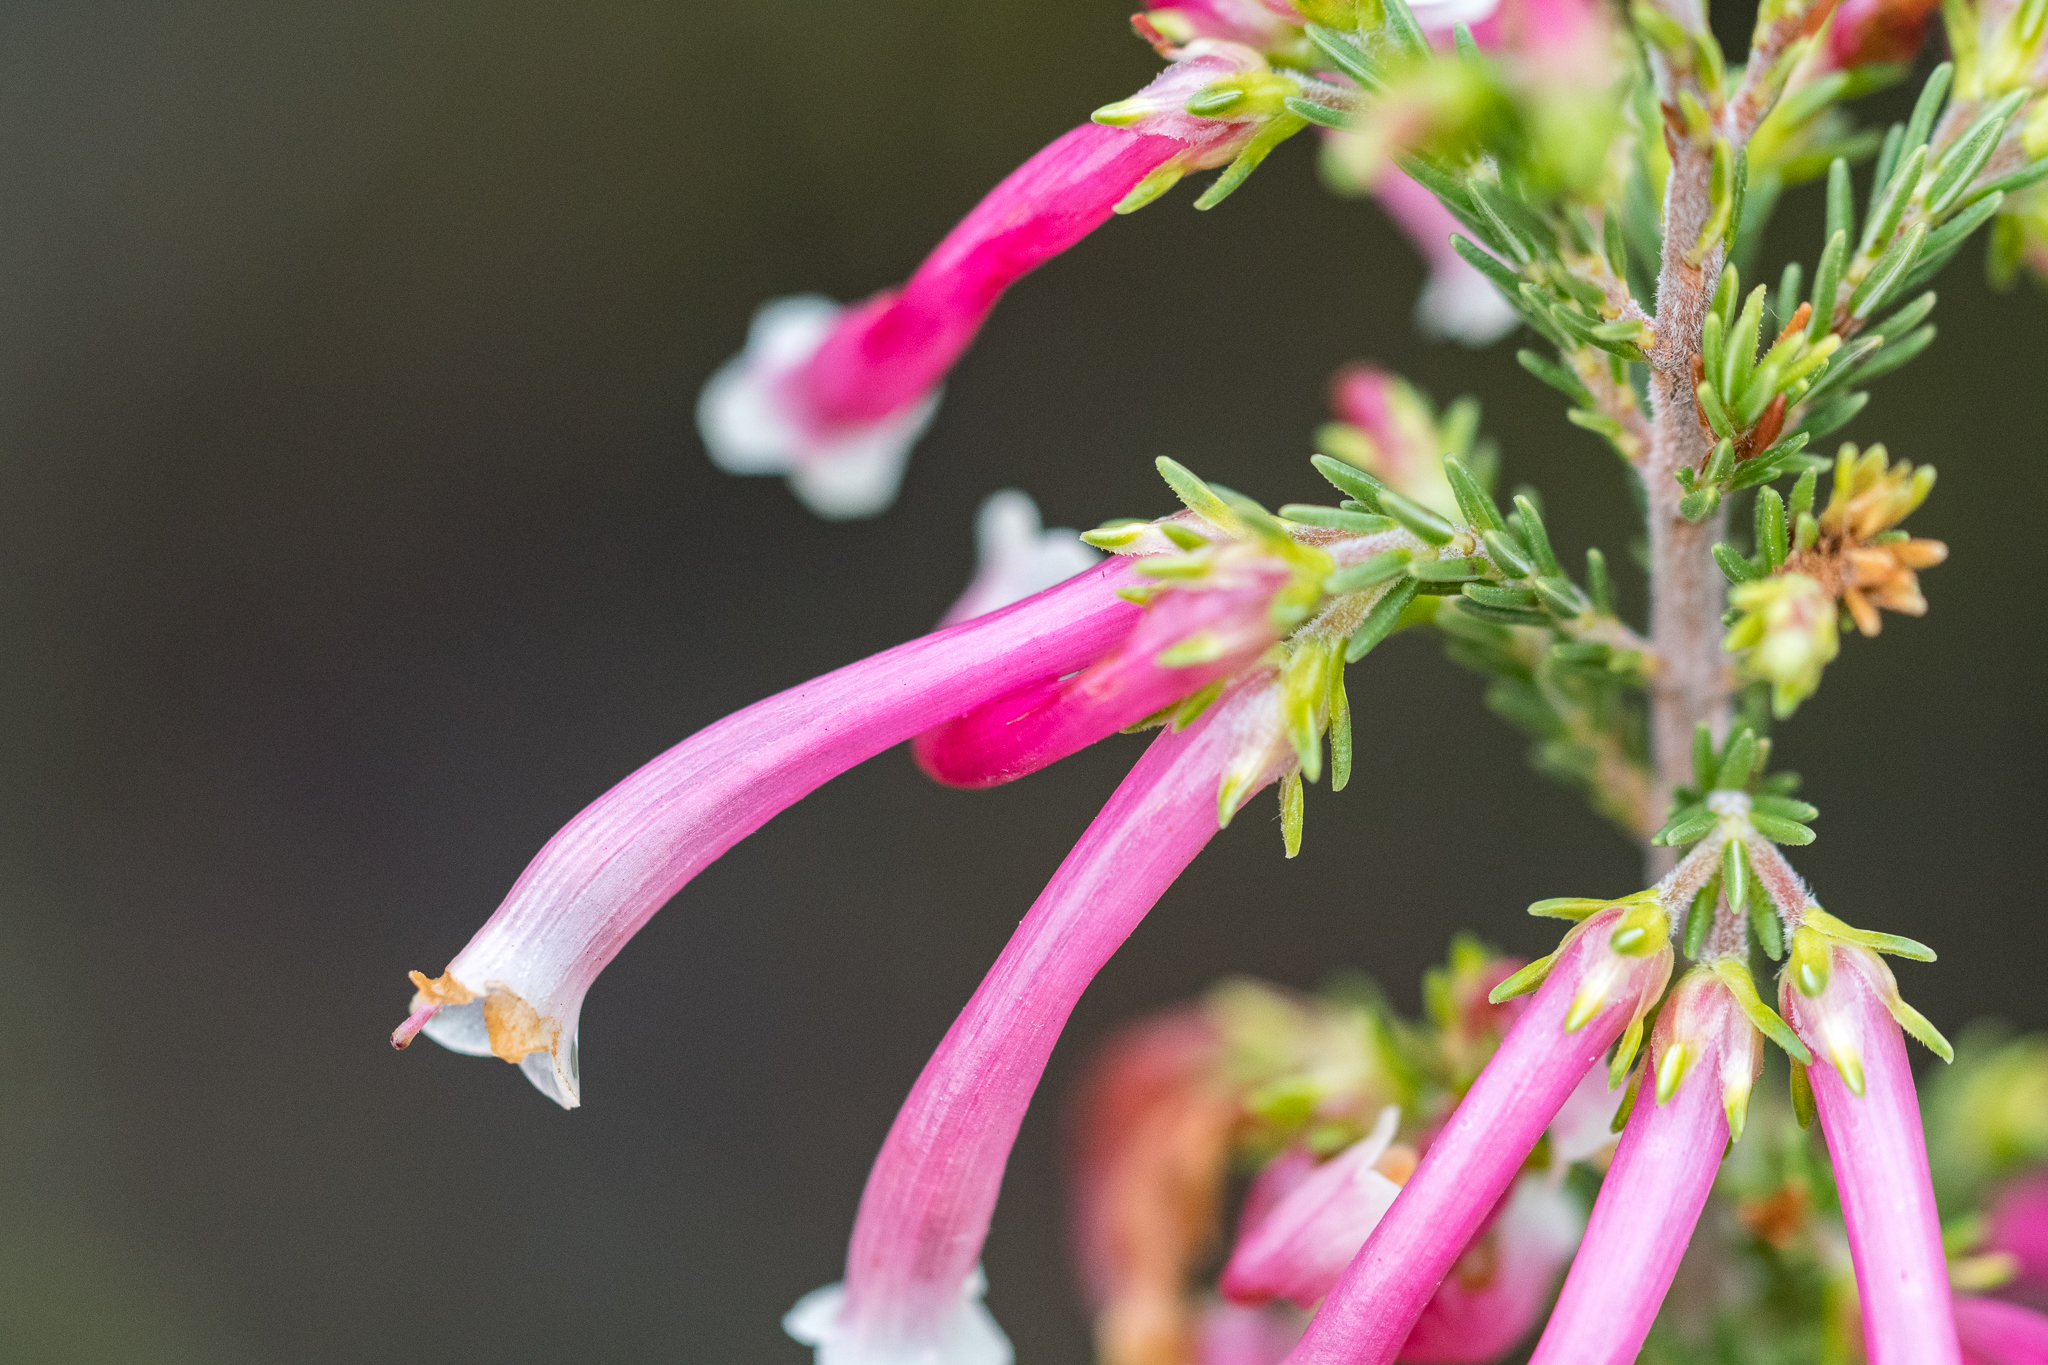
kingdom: Plantae
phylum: Tracheophyta
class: Magnoliopsida
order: Ericales
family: Ericaceae
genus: Erica
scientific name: Erica discolor
